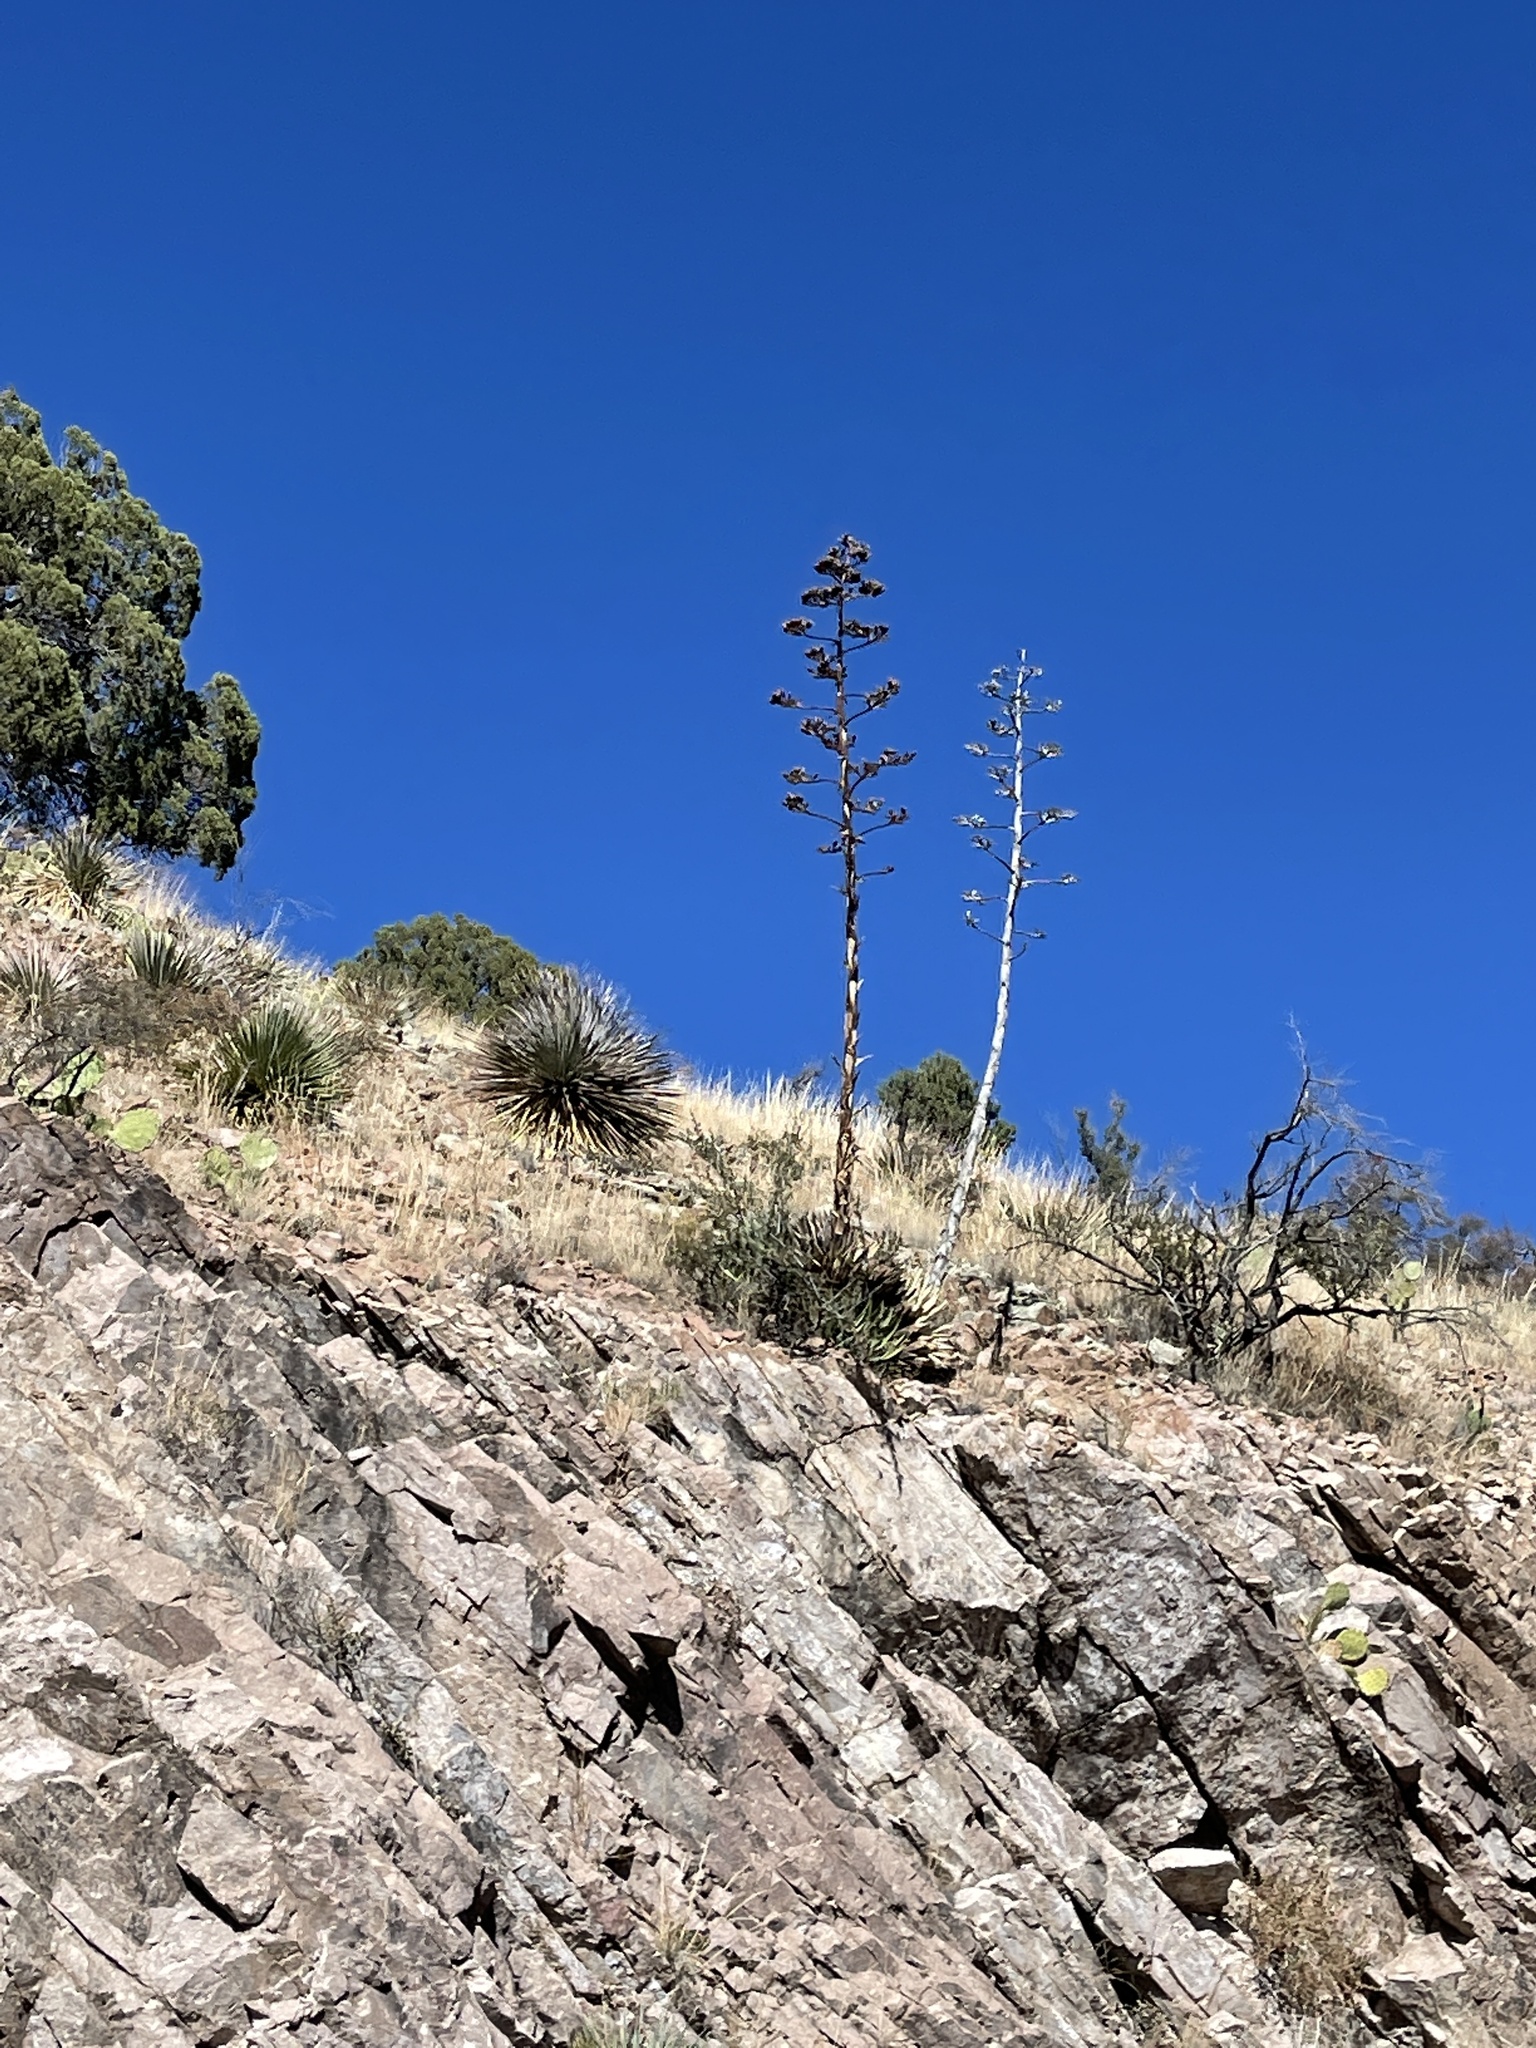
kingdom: Plantae
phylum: Tracheophyta
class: Liliopsida
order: Asparagales
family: Asparagaceae
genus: Agave
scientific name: Agave parryi
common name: Parry's agave
